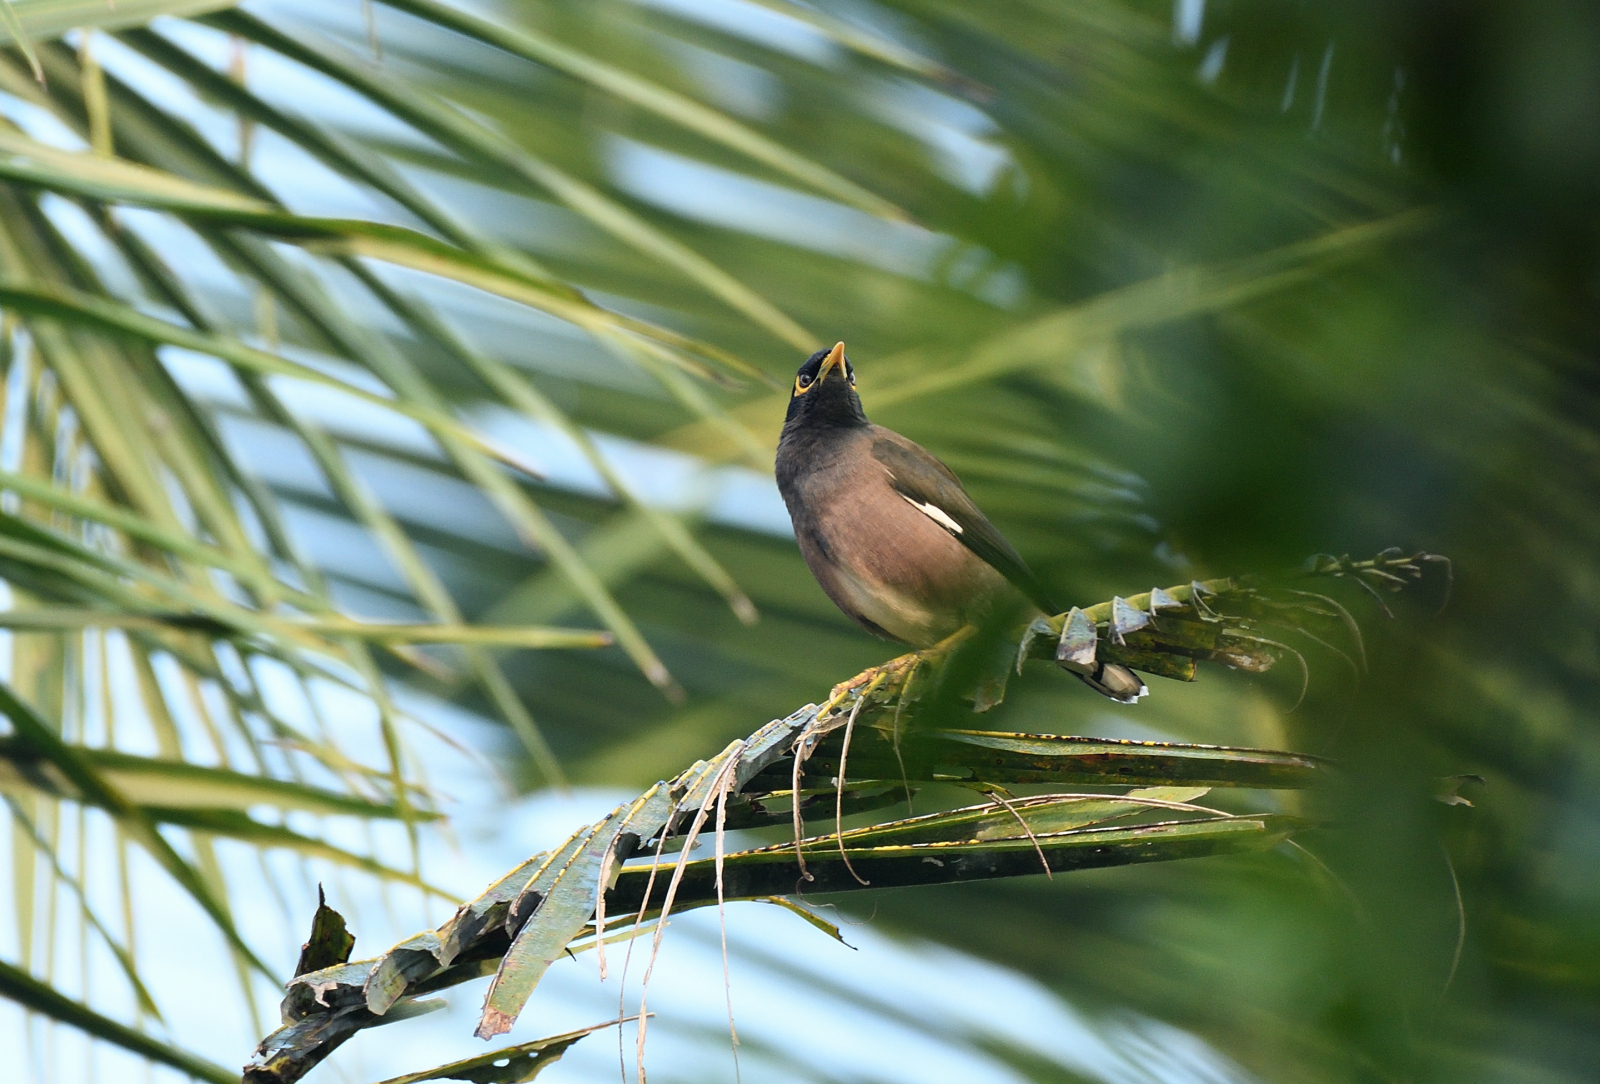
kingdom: Animalia
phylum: Chordata
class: Aves
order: Passeriformes
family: Sturnidae
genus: Acridotheres
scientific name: Acridotheres tristis
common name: Common myna
